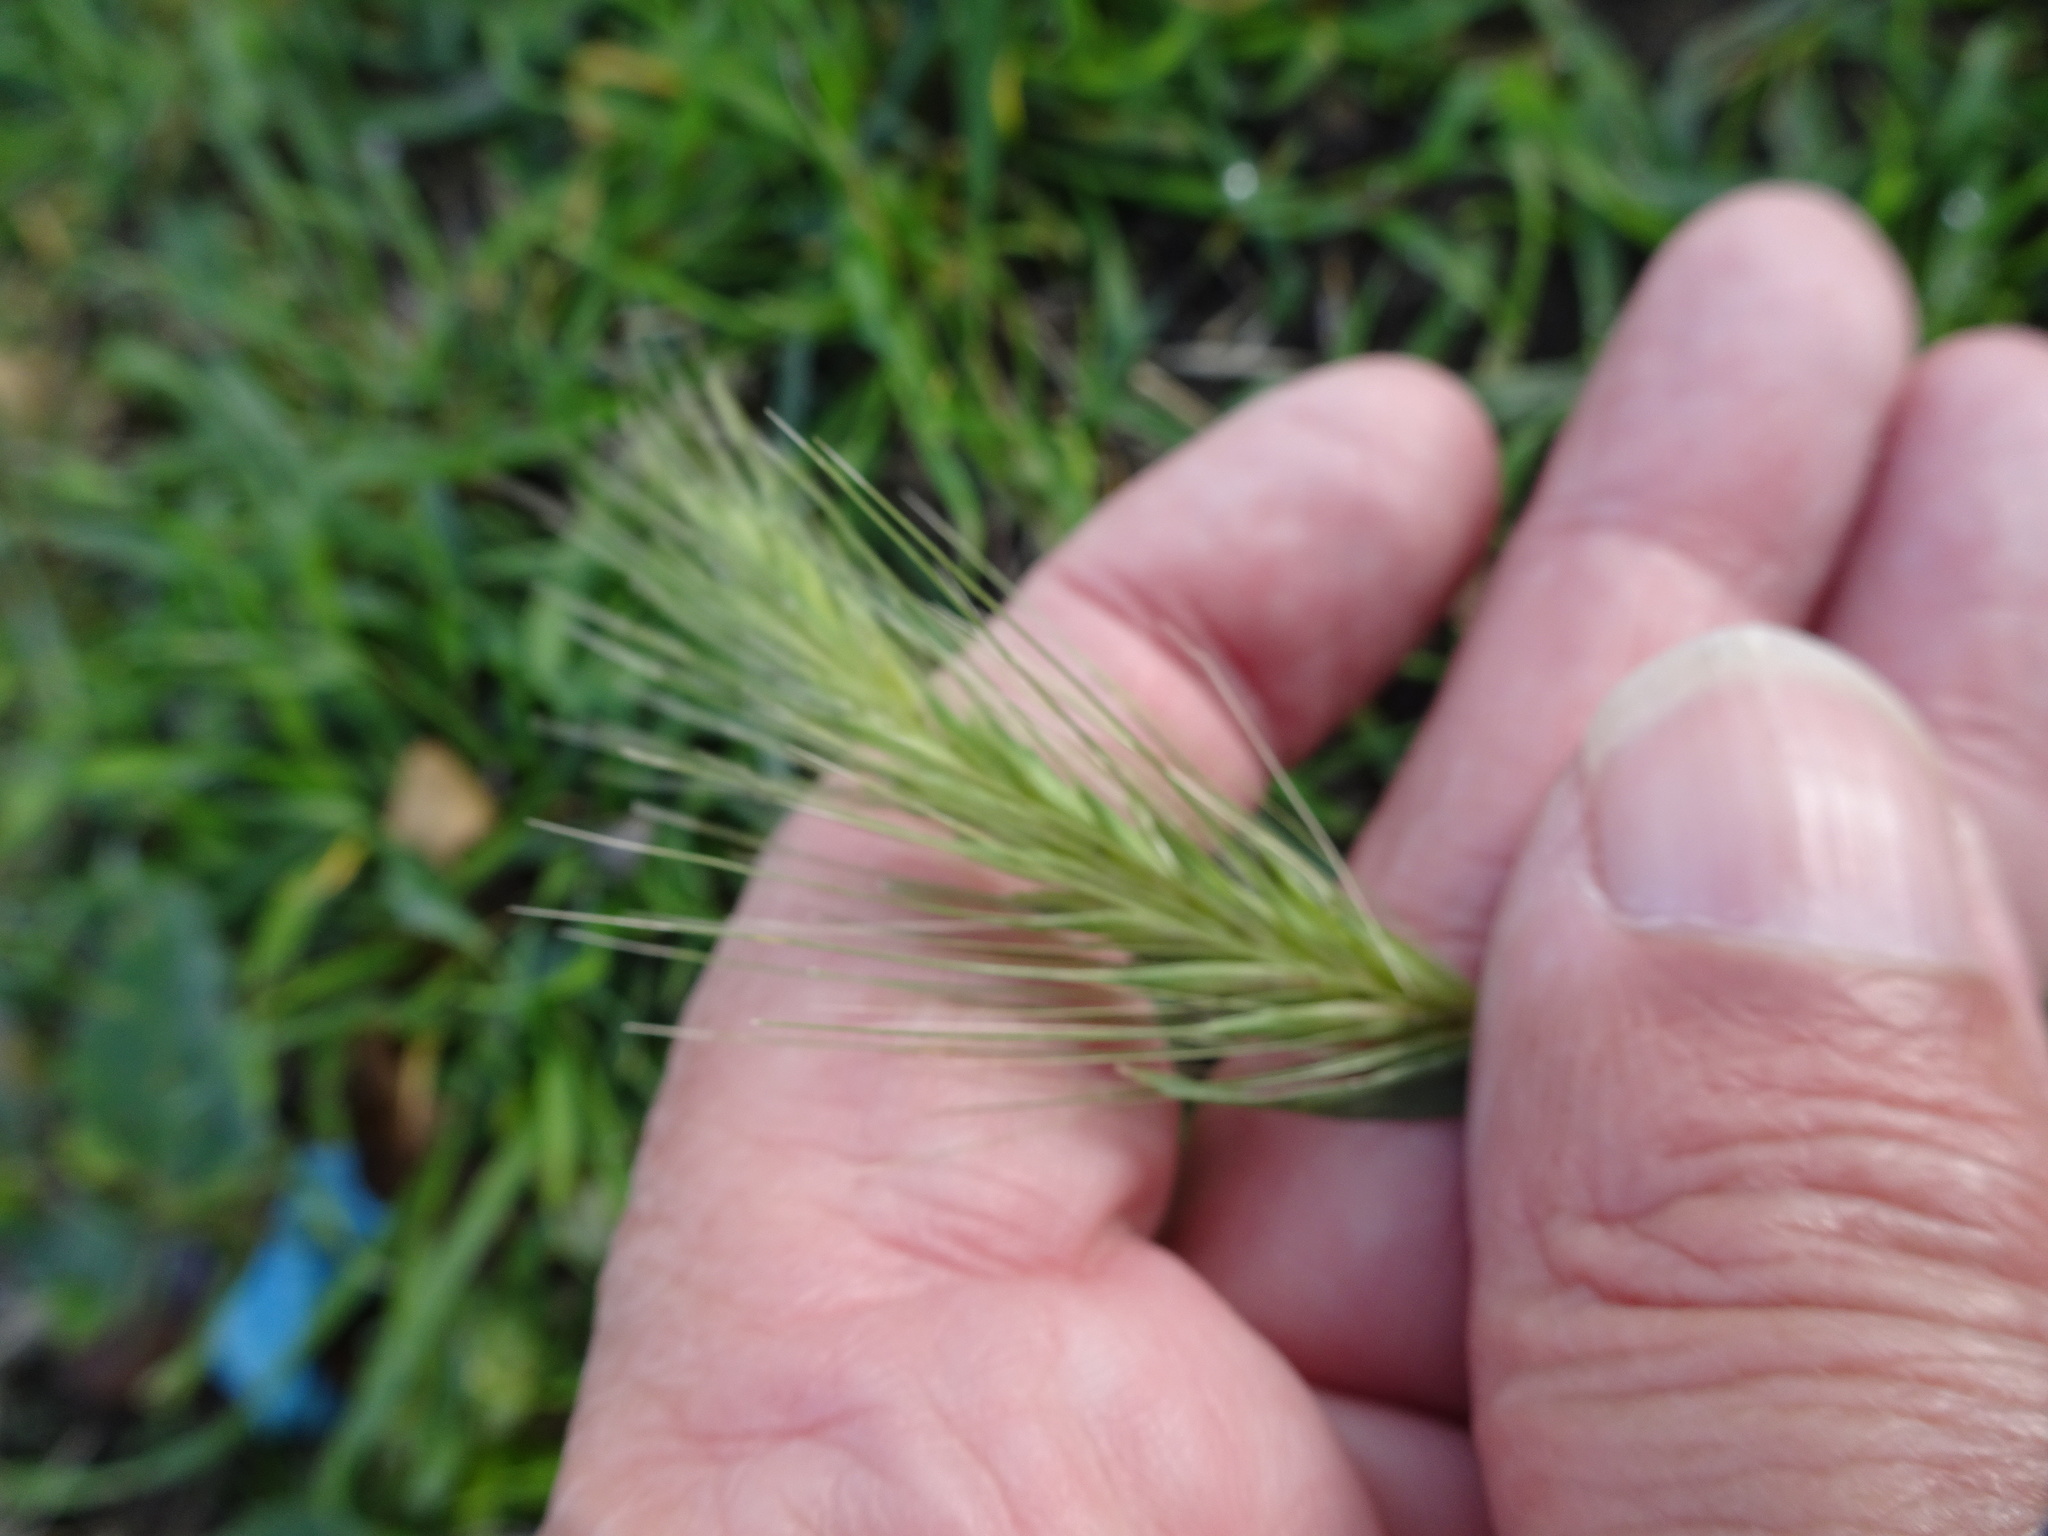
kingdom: Plantae
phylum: Tracheophyta
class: Liliopsida
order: Poales
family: Poaceae
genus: Hordeum
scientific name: Hordeum murinum
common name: Wall barley
